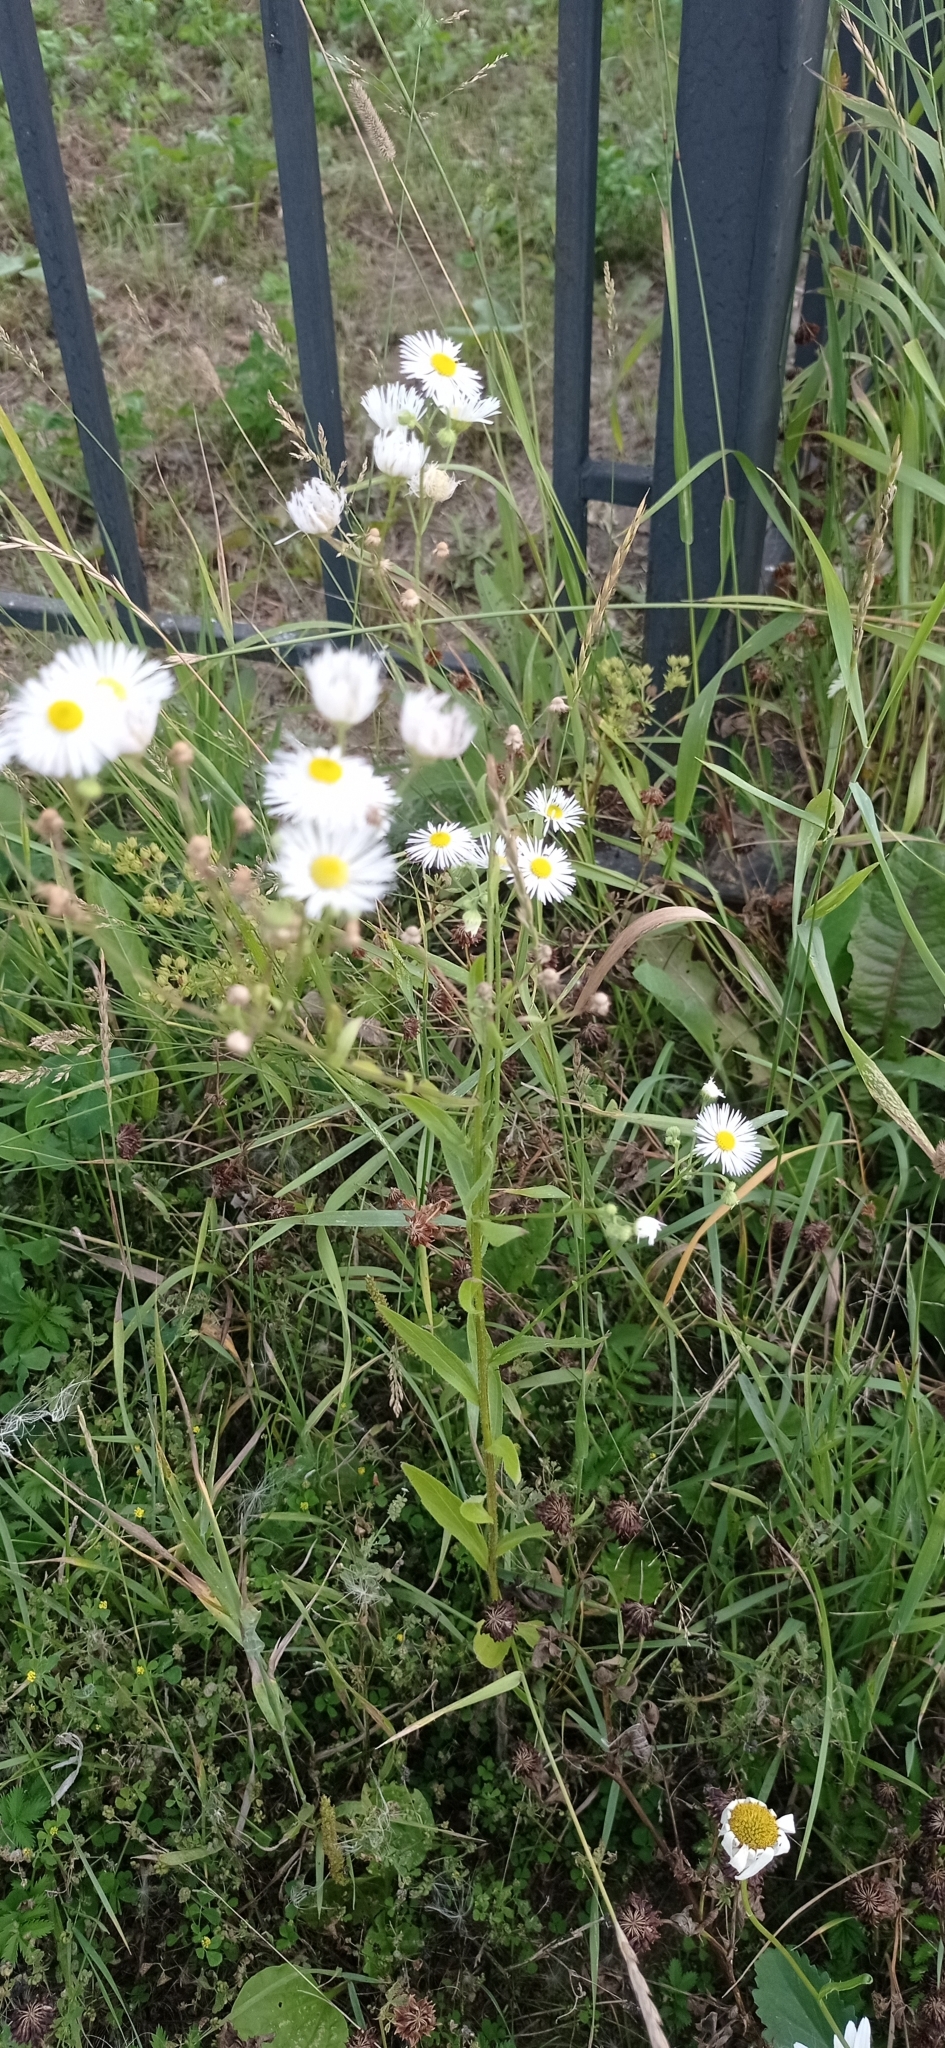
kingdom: Plantae
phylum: Tracheophyta
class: Magnoliopsida
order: Asterales
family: Asteraceae
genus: Erigeron
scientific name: Erigeron strigosus
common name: Common eastern fleabane
